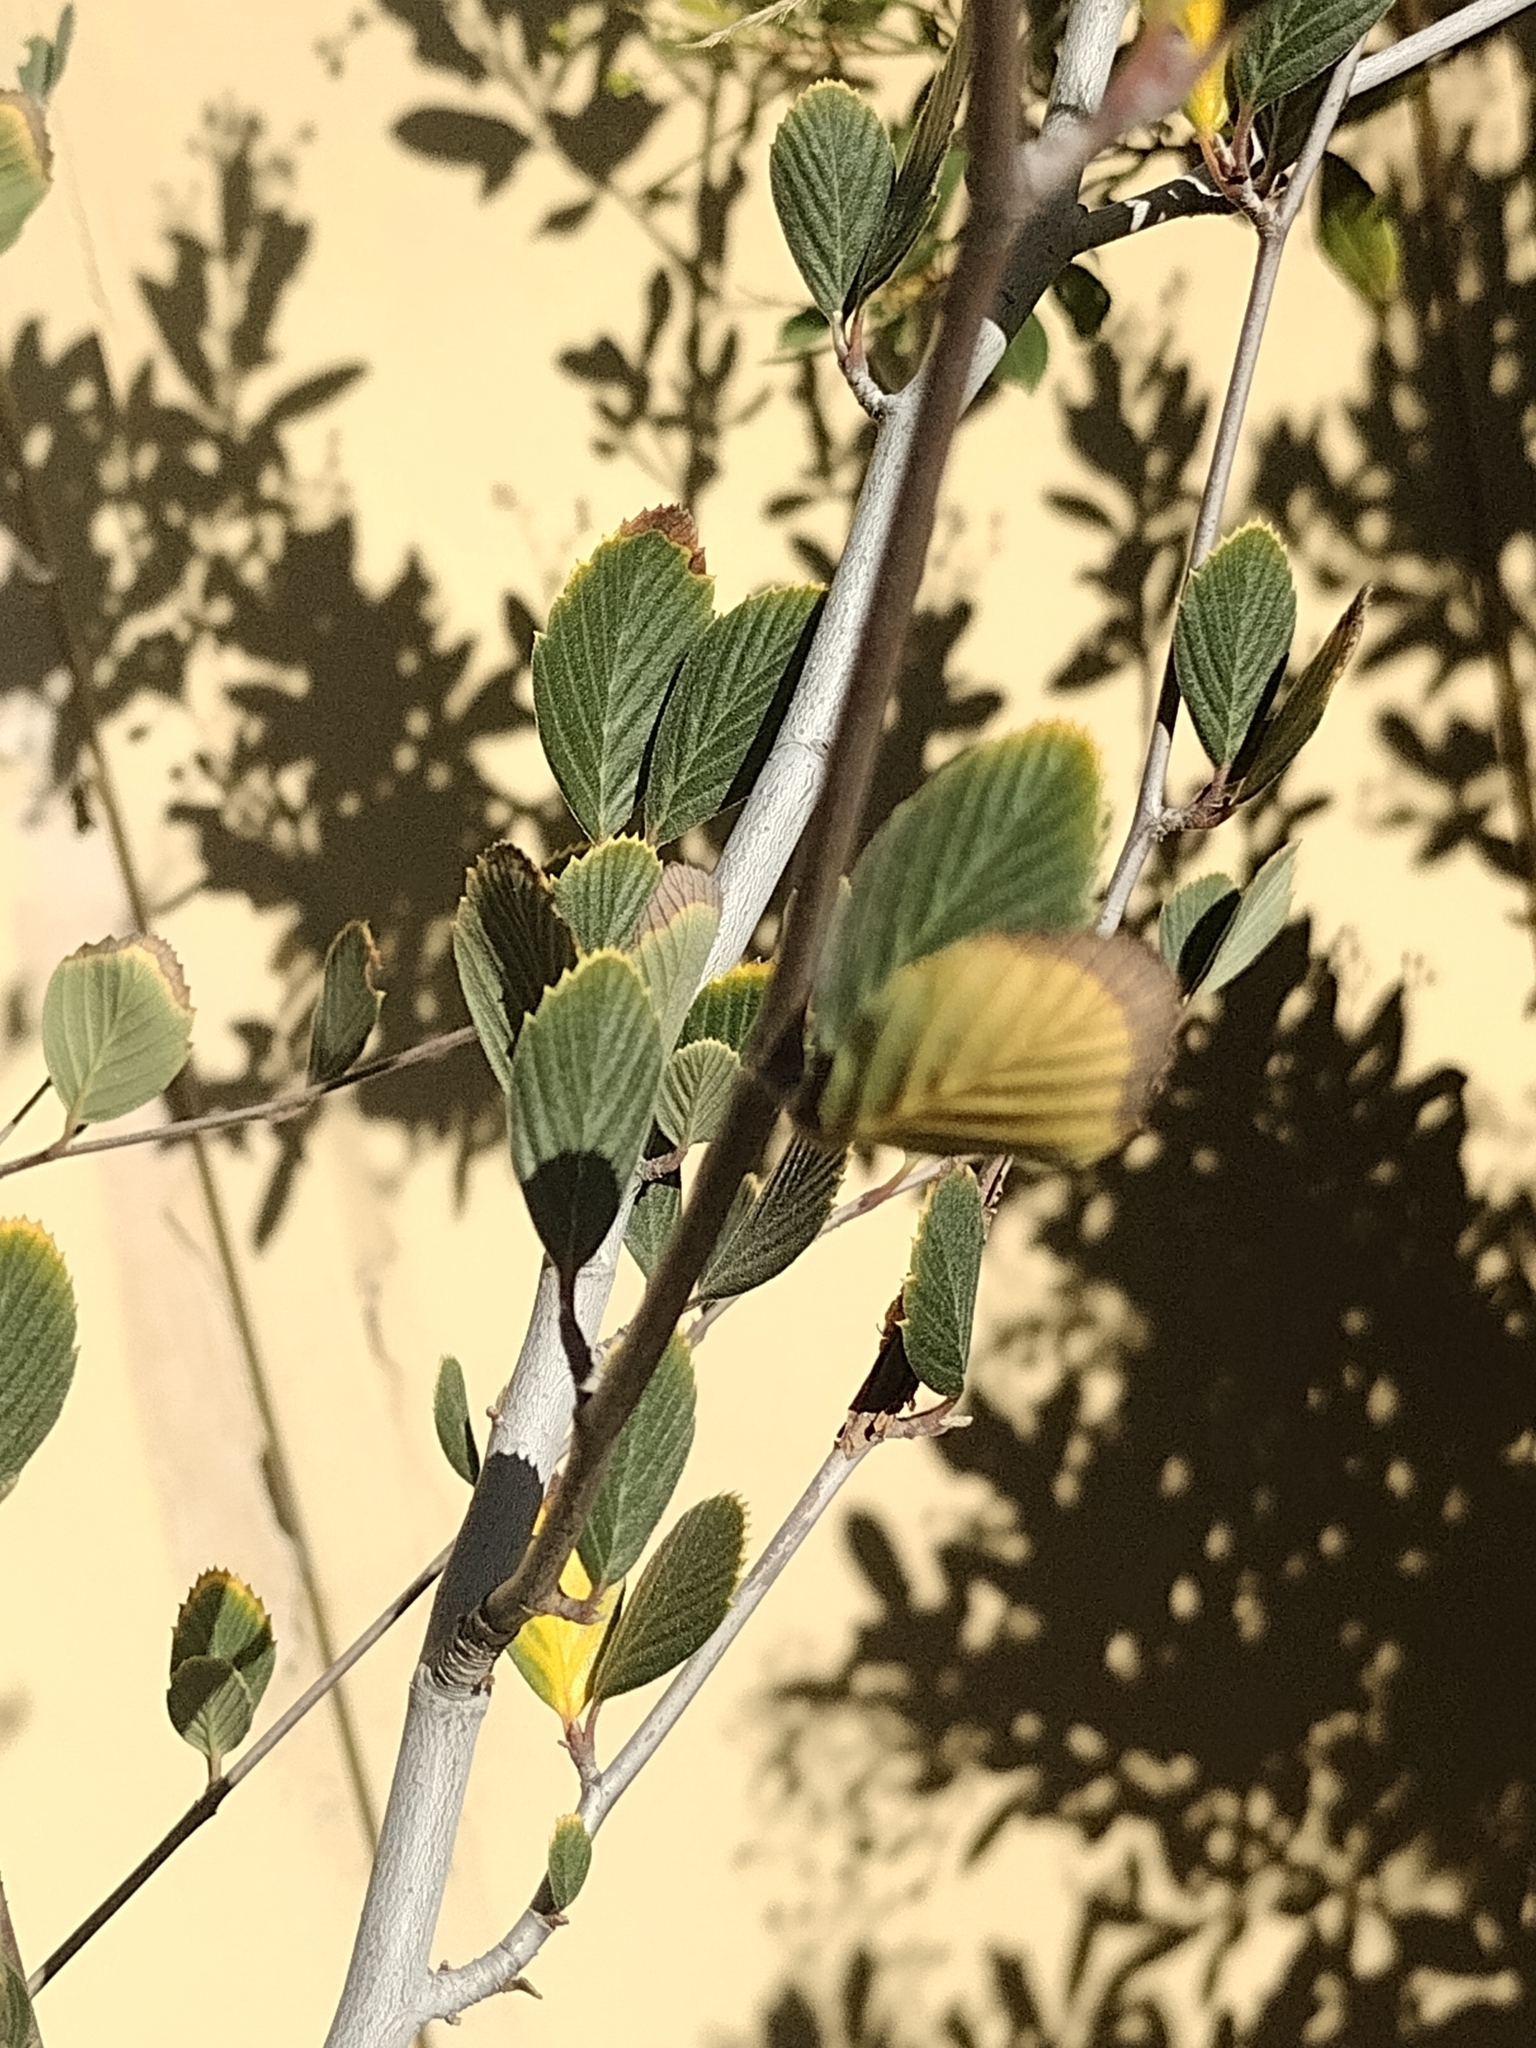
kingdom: Plantae
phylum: Tracheophyta
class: Magnoliopsida
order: Rosales
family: Rosaceae
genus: Cercocarpus
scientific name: Cercocarpus betuloides
